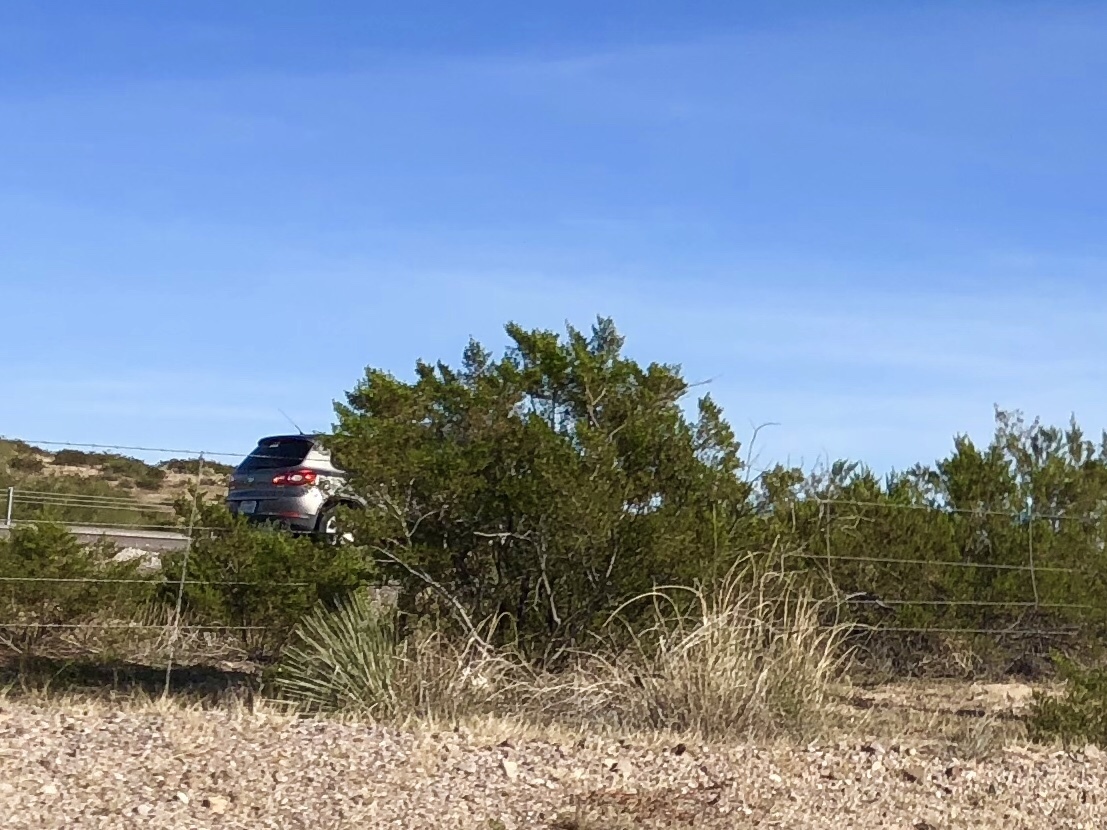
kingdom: Plantae
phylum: Tracheophyta
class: Magnoliopsida
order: Zygophyllales
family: Zygophyllaceae
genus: Larrea
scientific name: Larrea tridentata
